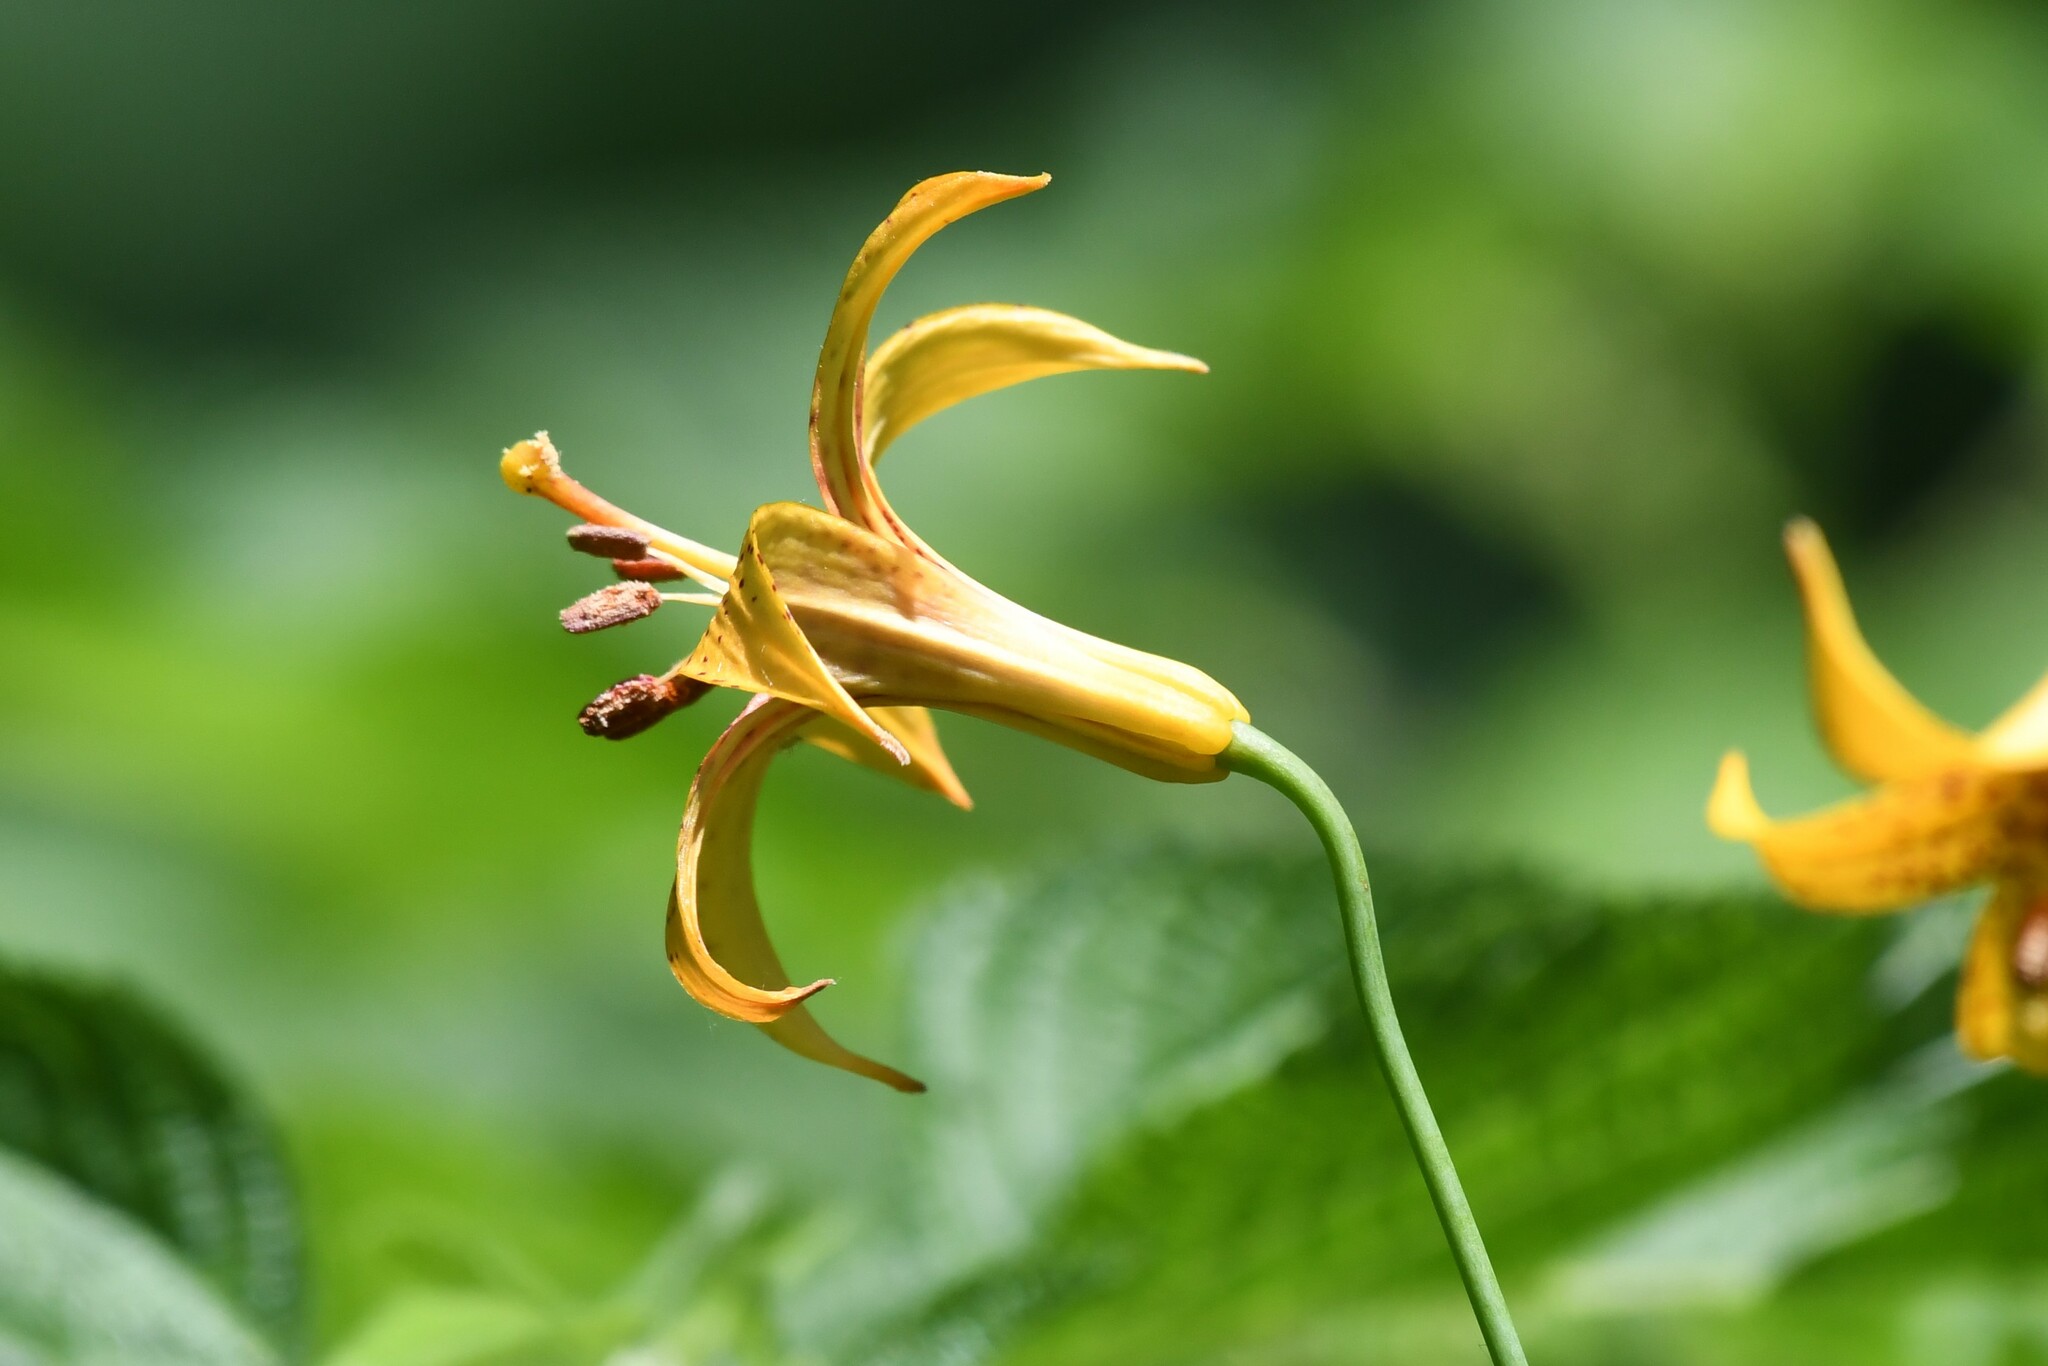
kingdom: Plantae
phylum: Tracheophyta
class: Liliopsida
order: Liliales
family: Liliaceae
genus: Lilium
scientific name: Lilium canadense
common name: Canada lily
